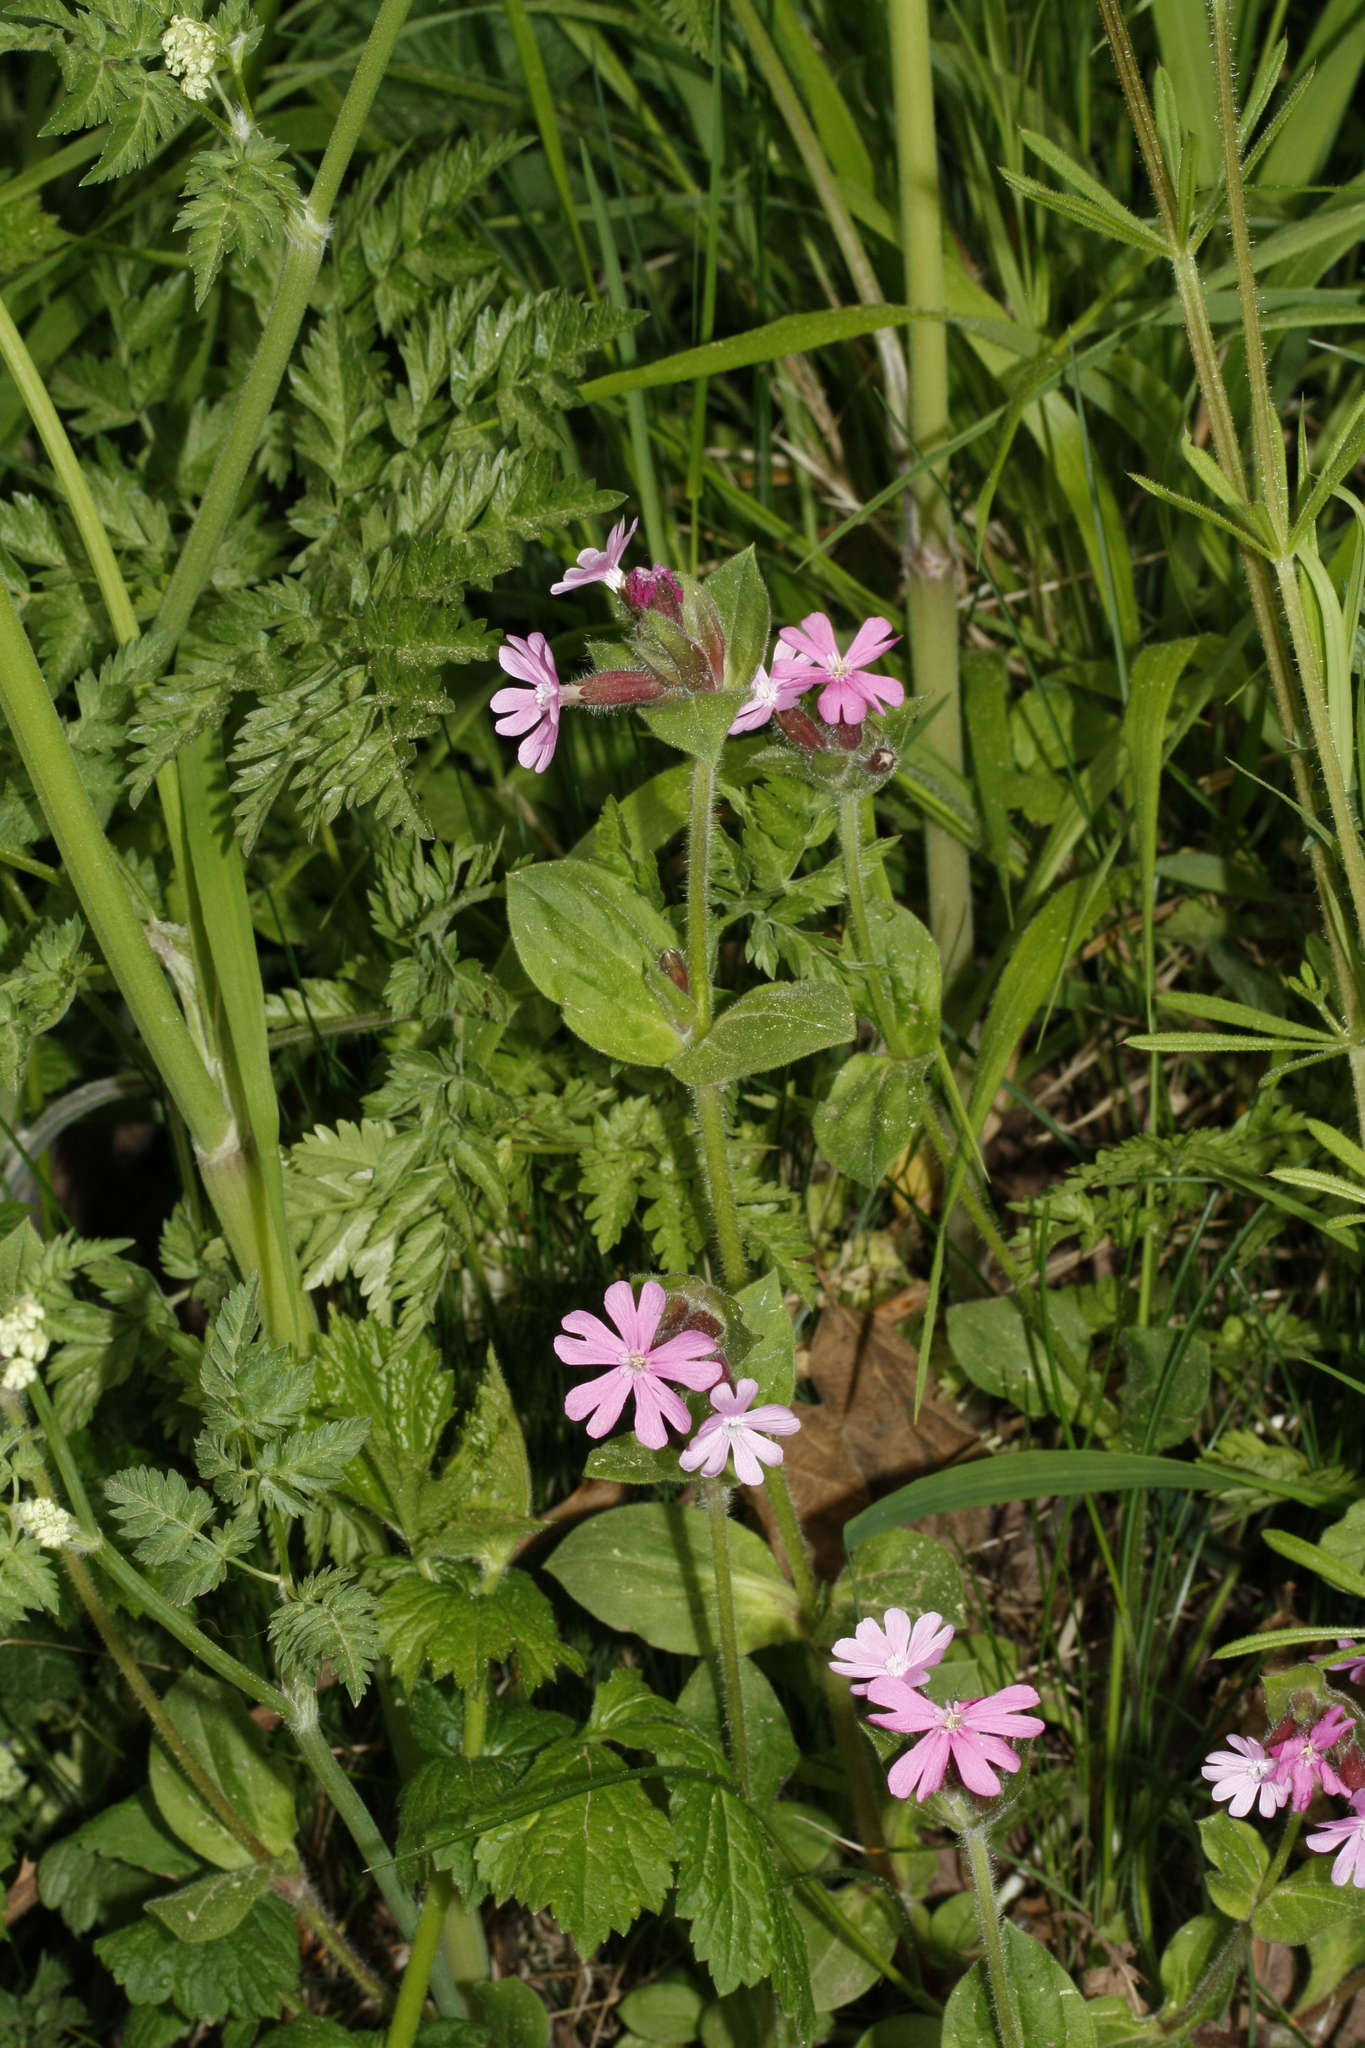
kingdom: Plantae
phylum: Tracheophyta
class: Magnoliopsida
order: Caryophyllales
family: Caryophyllaceae
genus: Silene
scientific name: Silene dioica
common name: Red campion
